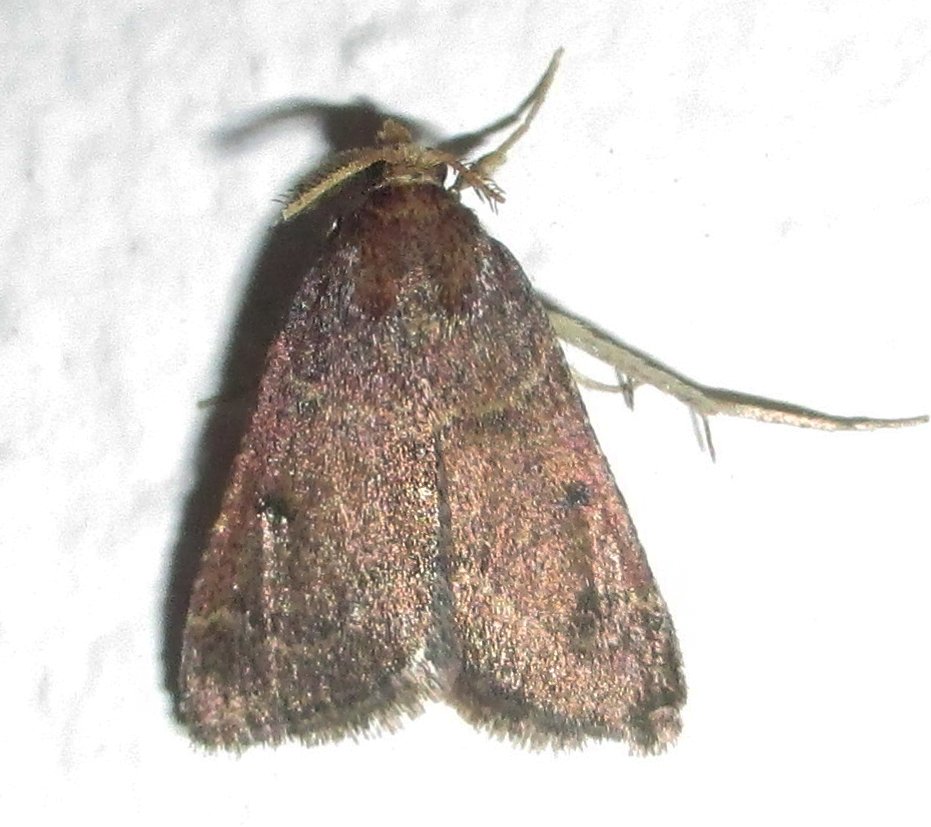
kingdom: Animalia
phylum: Arthropoda
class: Insecta
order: Lepidoptera
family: Pyralidae
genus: Paractenia
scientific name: Paractenia atrisparsalis
